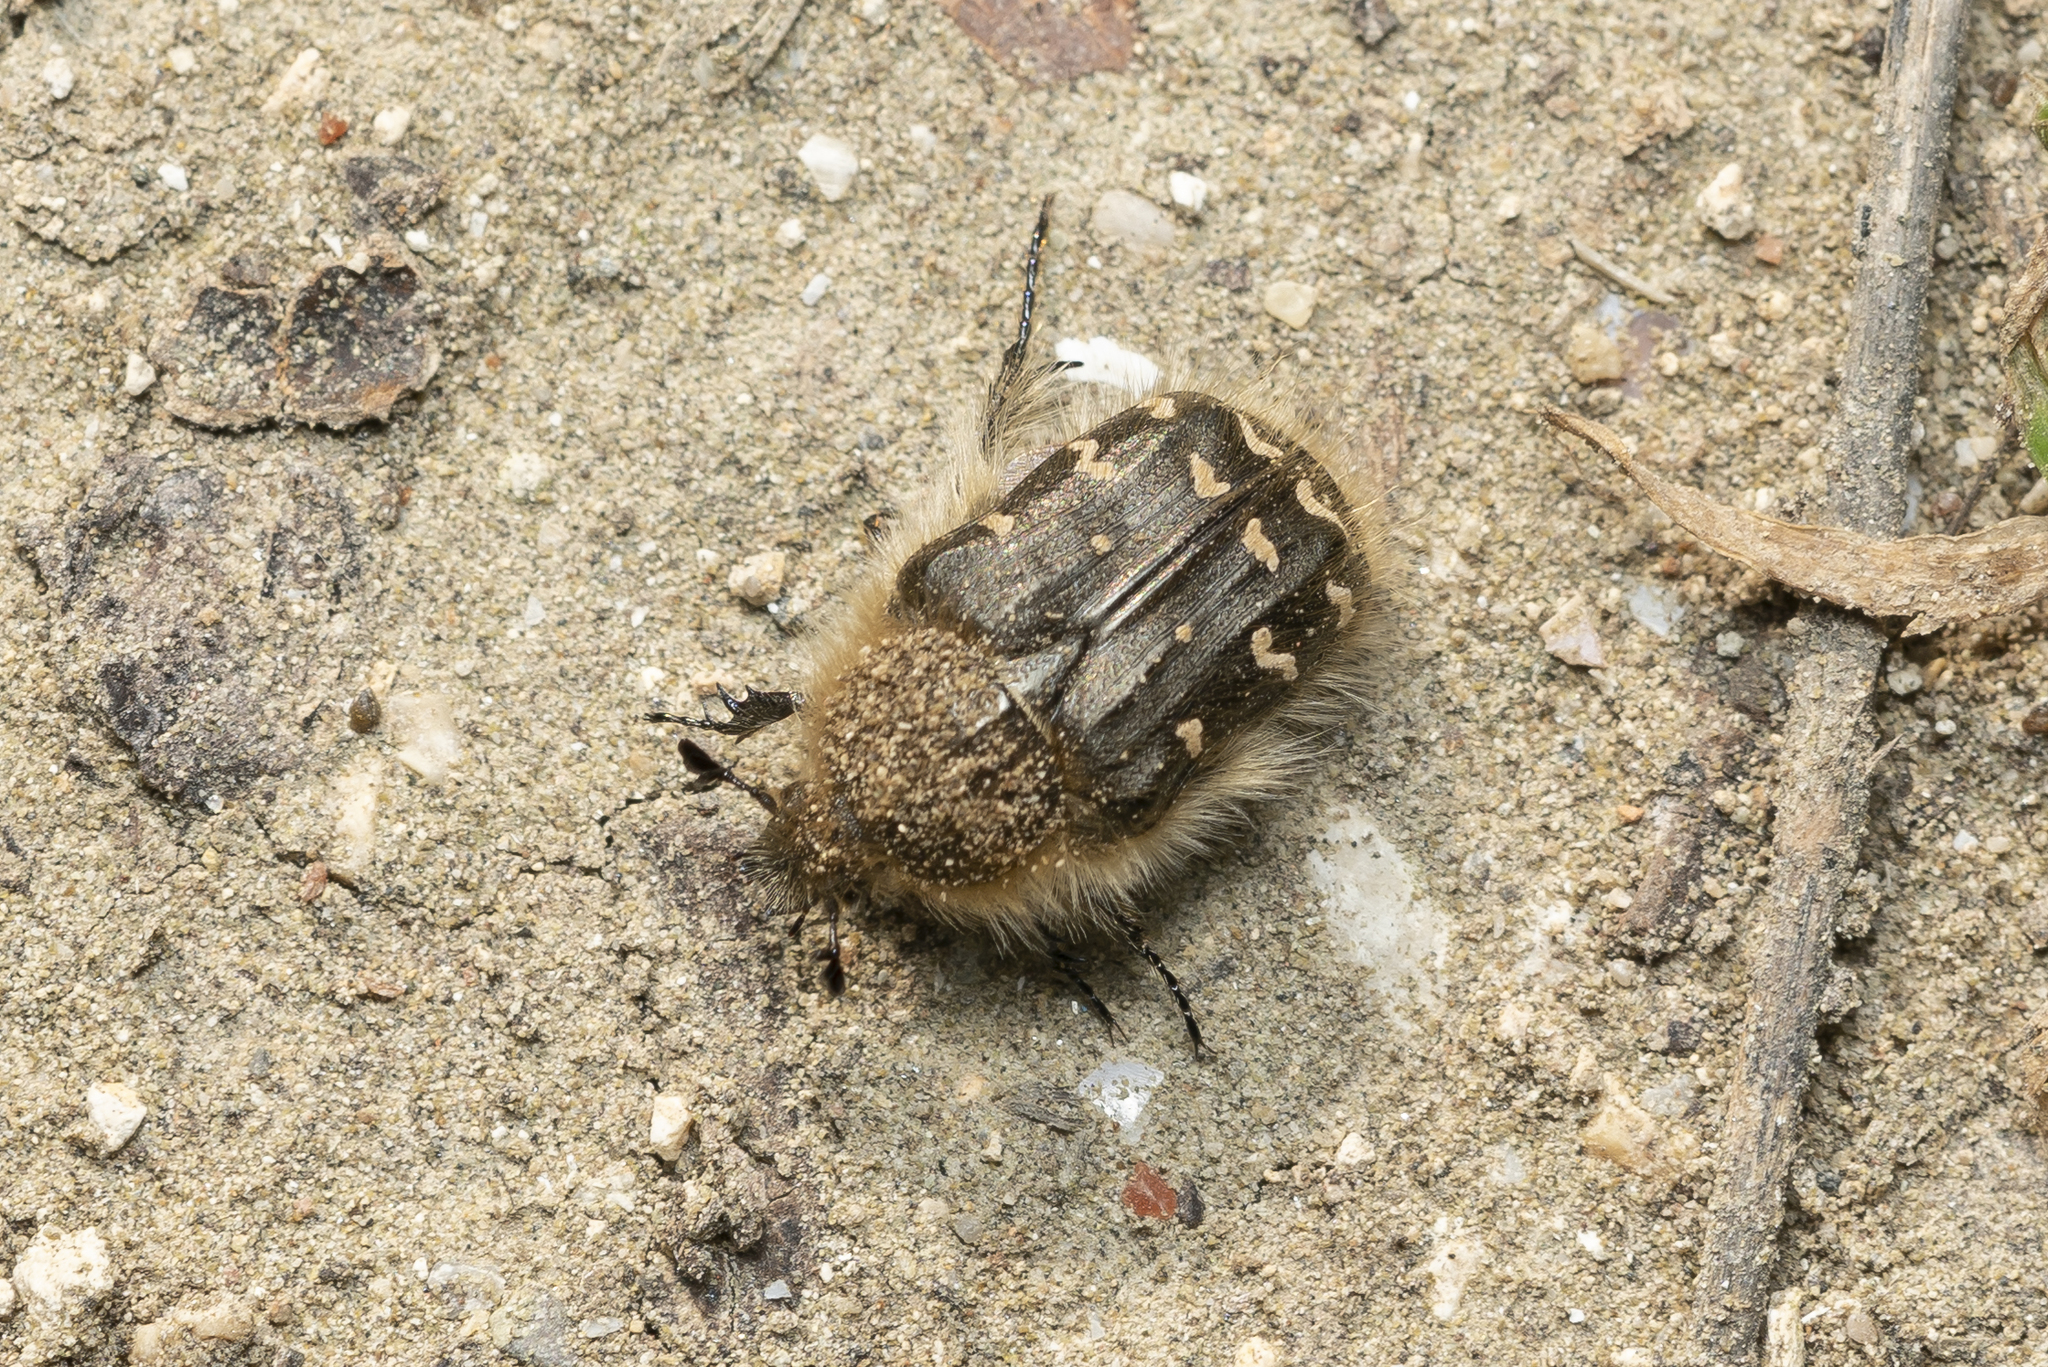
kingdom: Animalia
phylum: Arthropoda
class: Insecta
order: Coleoptera
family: Scarabaeidae
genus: Tropinota
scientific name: Tropinota hirta
